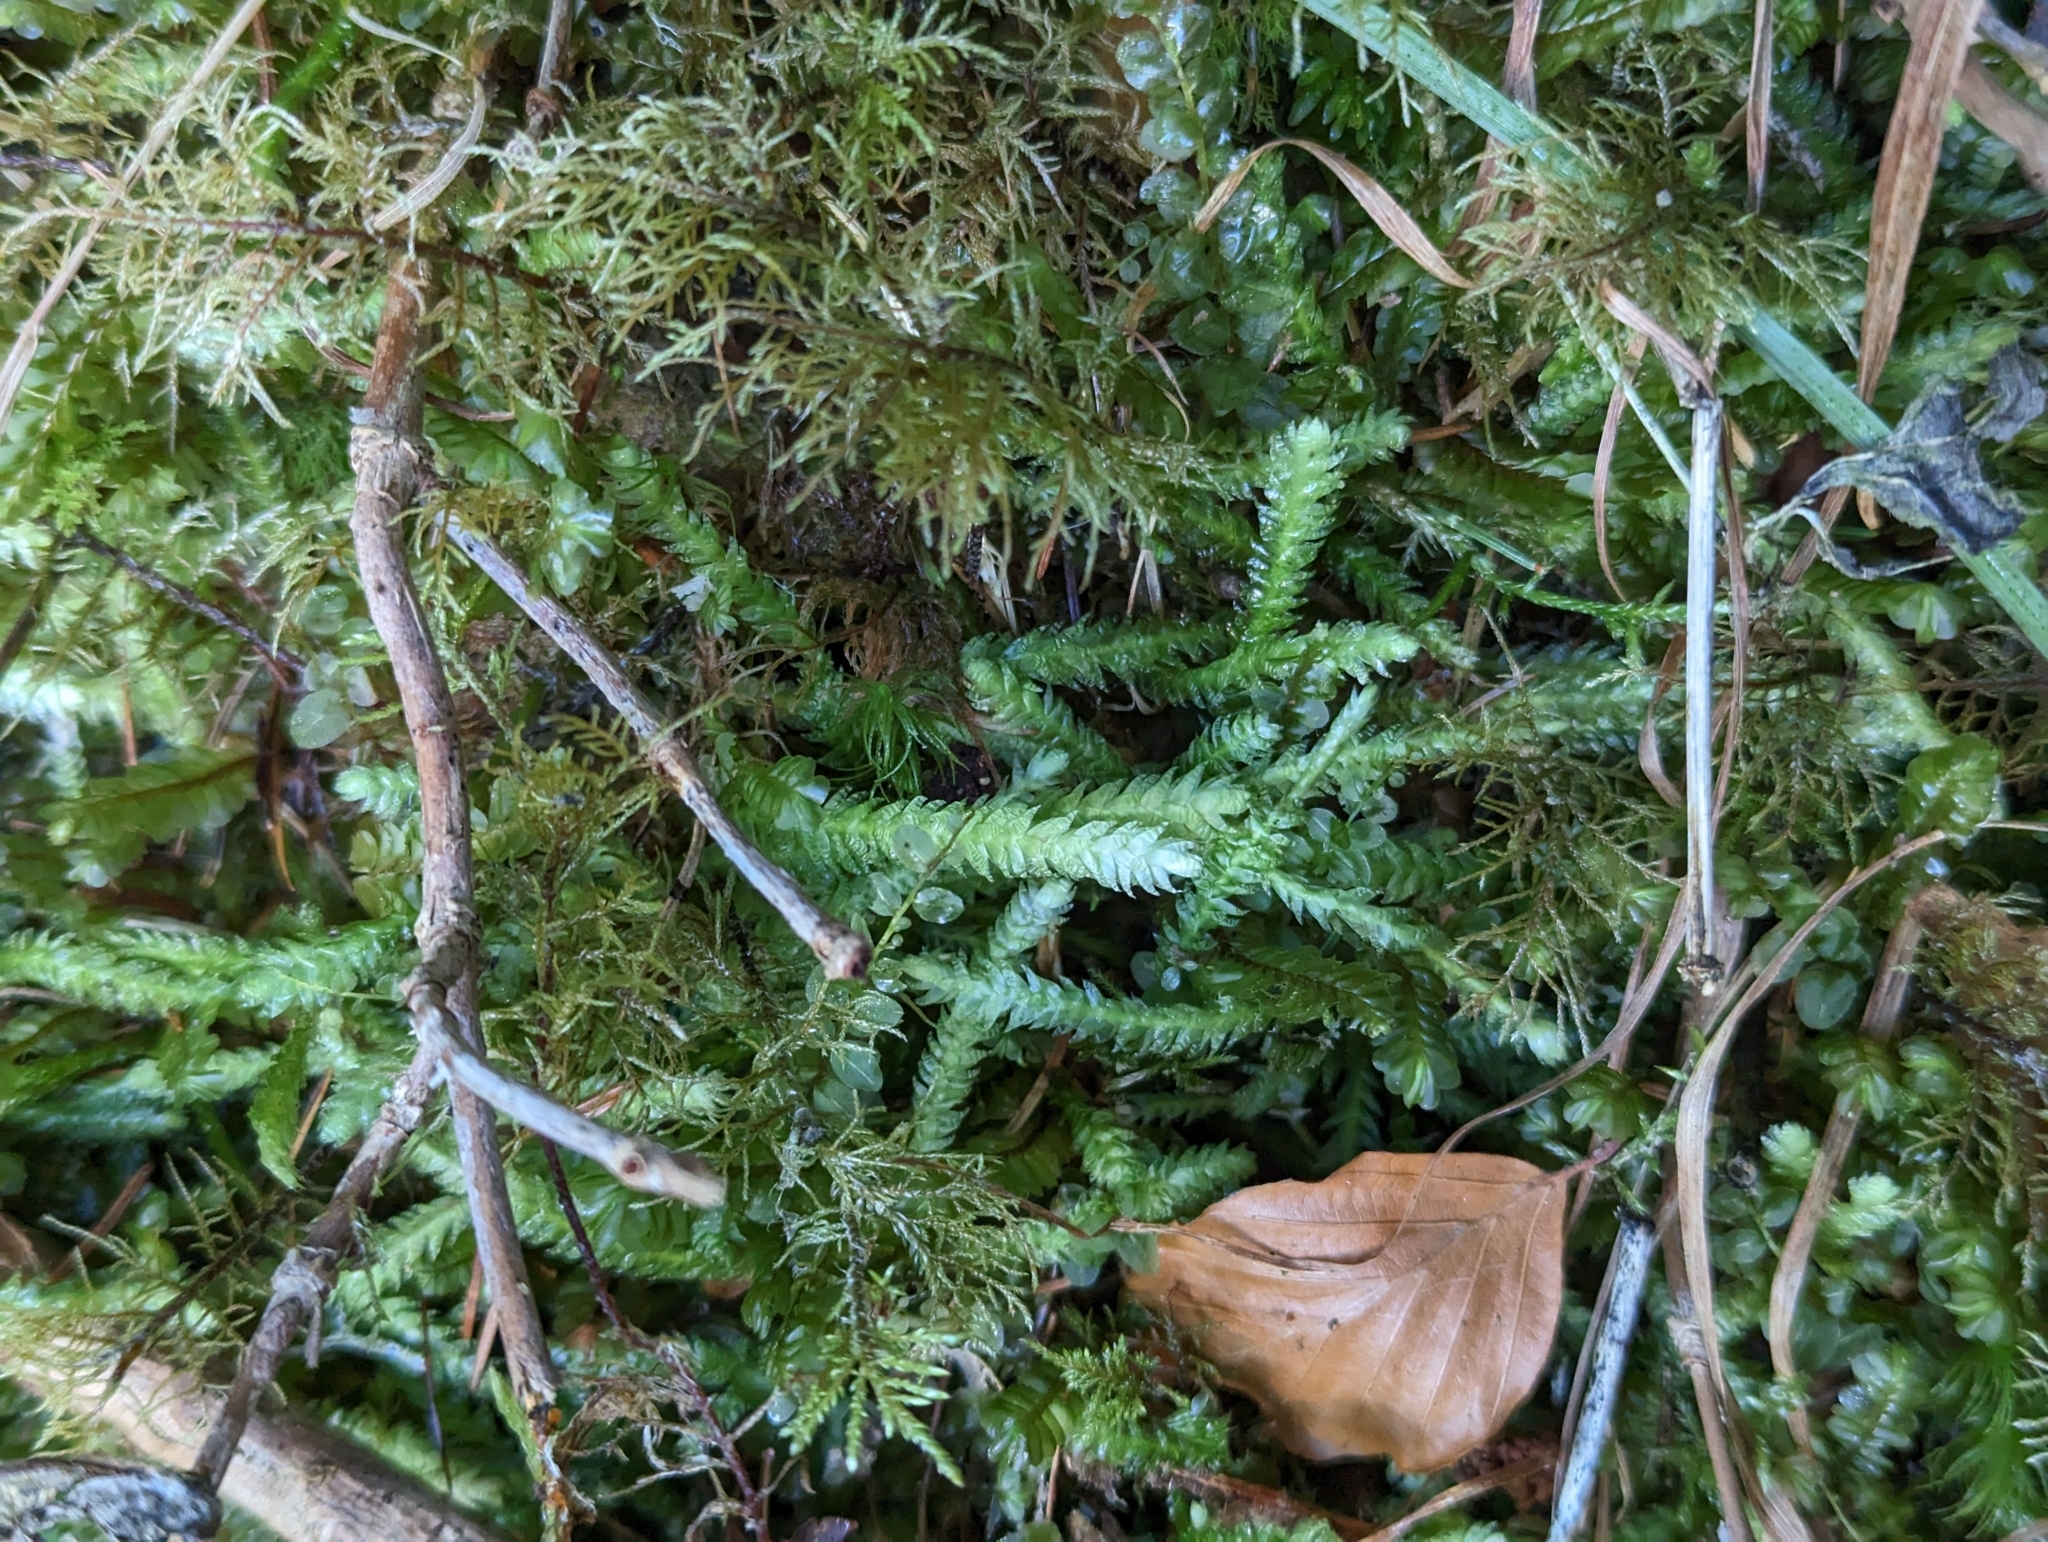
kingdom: Plantae
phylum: Bryophyta
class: Bryopsida
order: Hypnales
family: Plagiotheciaceae
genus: Plagiothecium
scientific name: Plagiothecium undulatum
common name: Waved silk-moss
